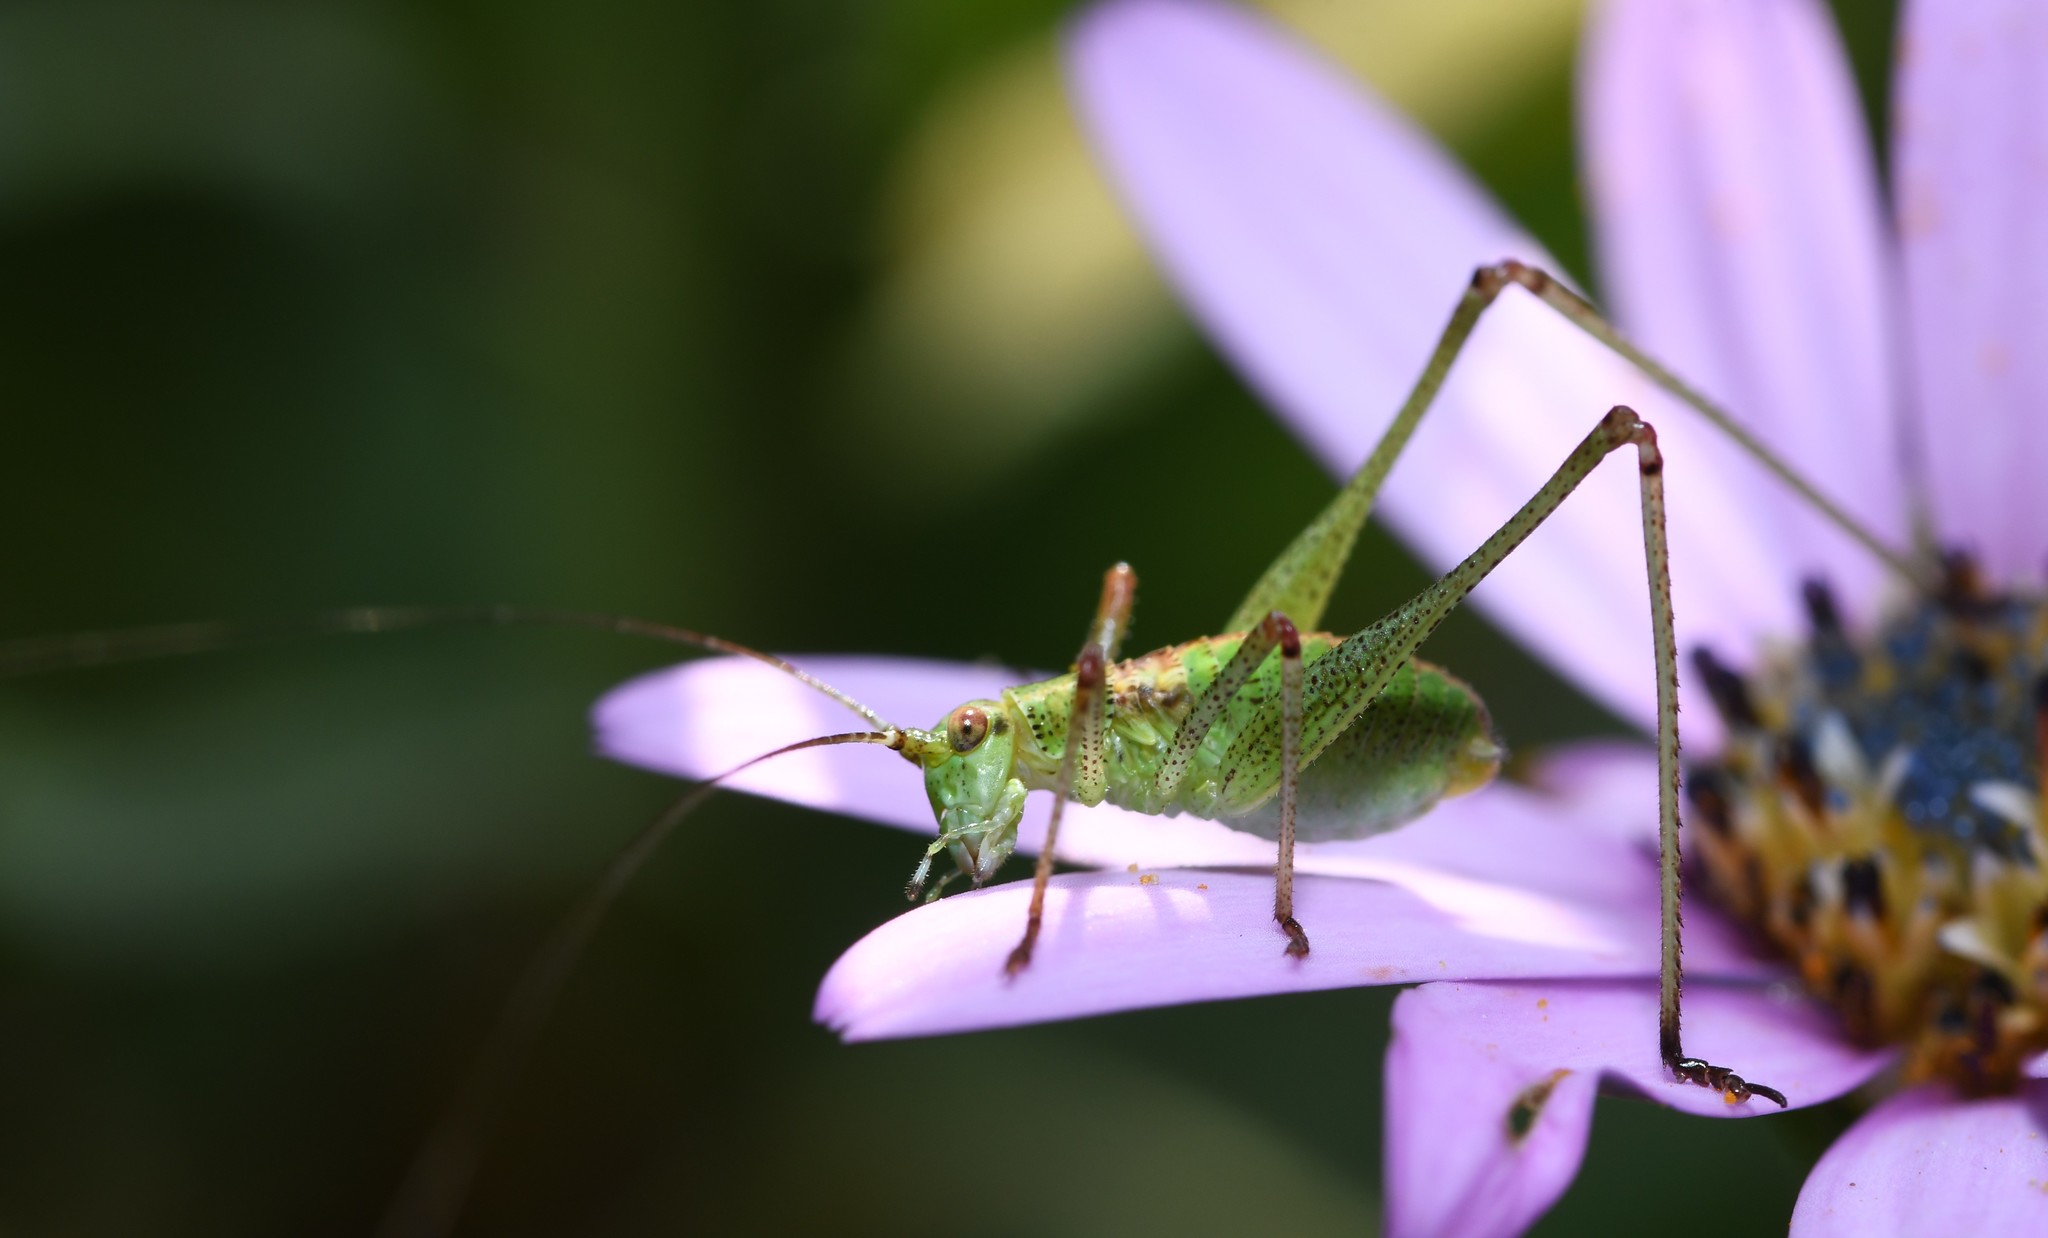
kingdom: Animalia
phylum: Arthropoda
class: Insecta
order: Orthoptera
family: Tettigoniidae
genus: Phaneroptera
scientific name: Phaneroptera nana
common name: Southern sickle bush-cricket
